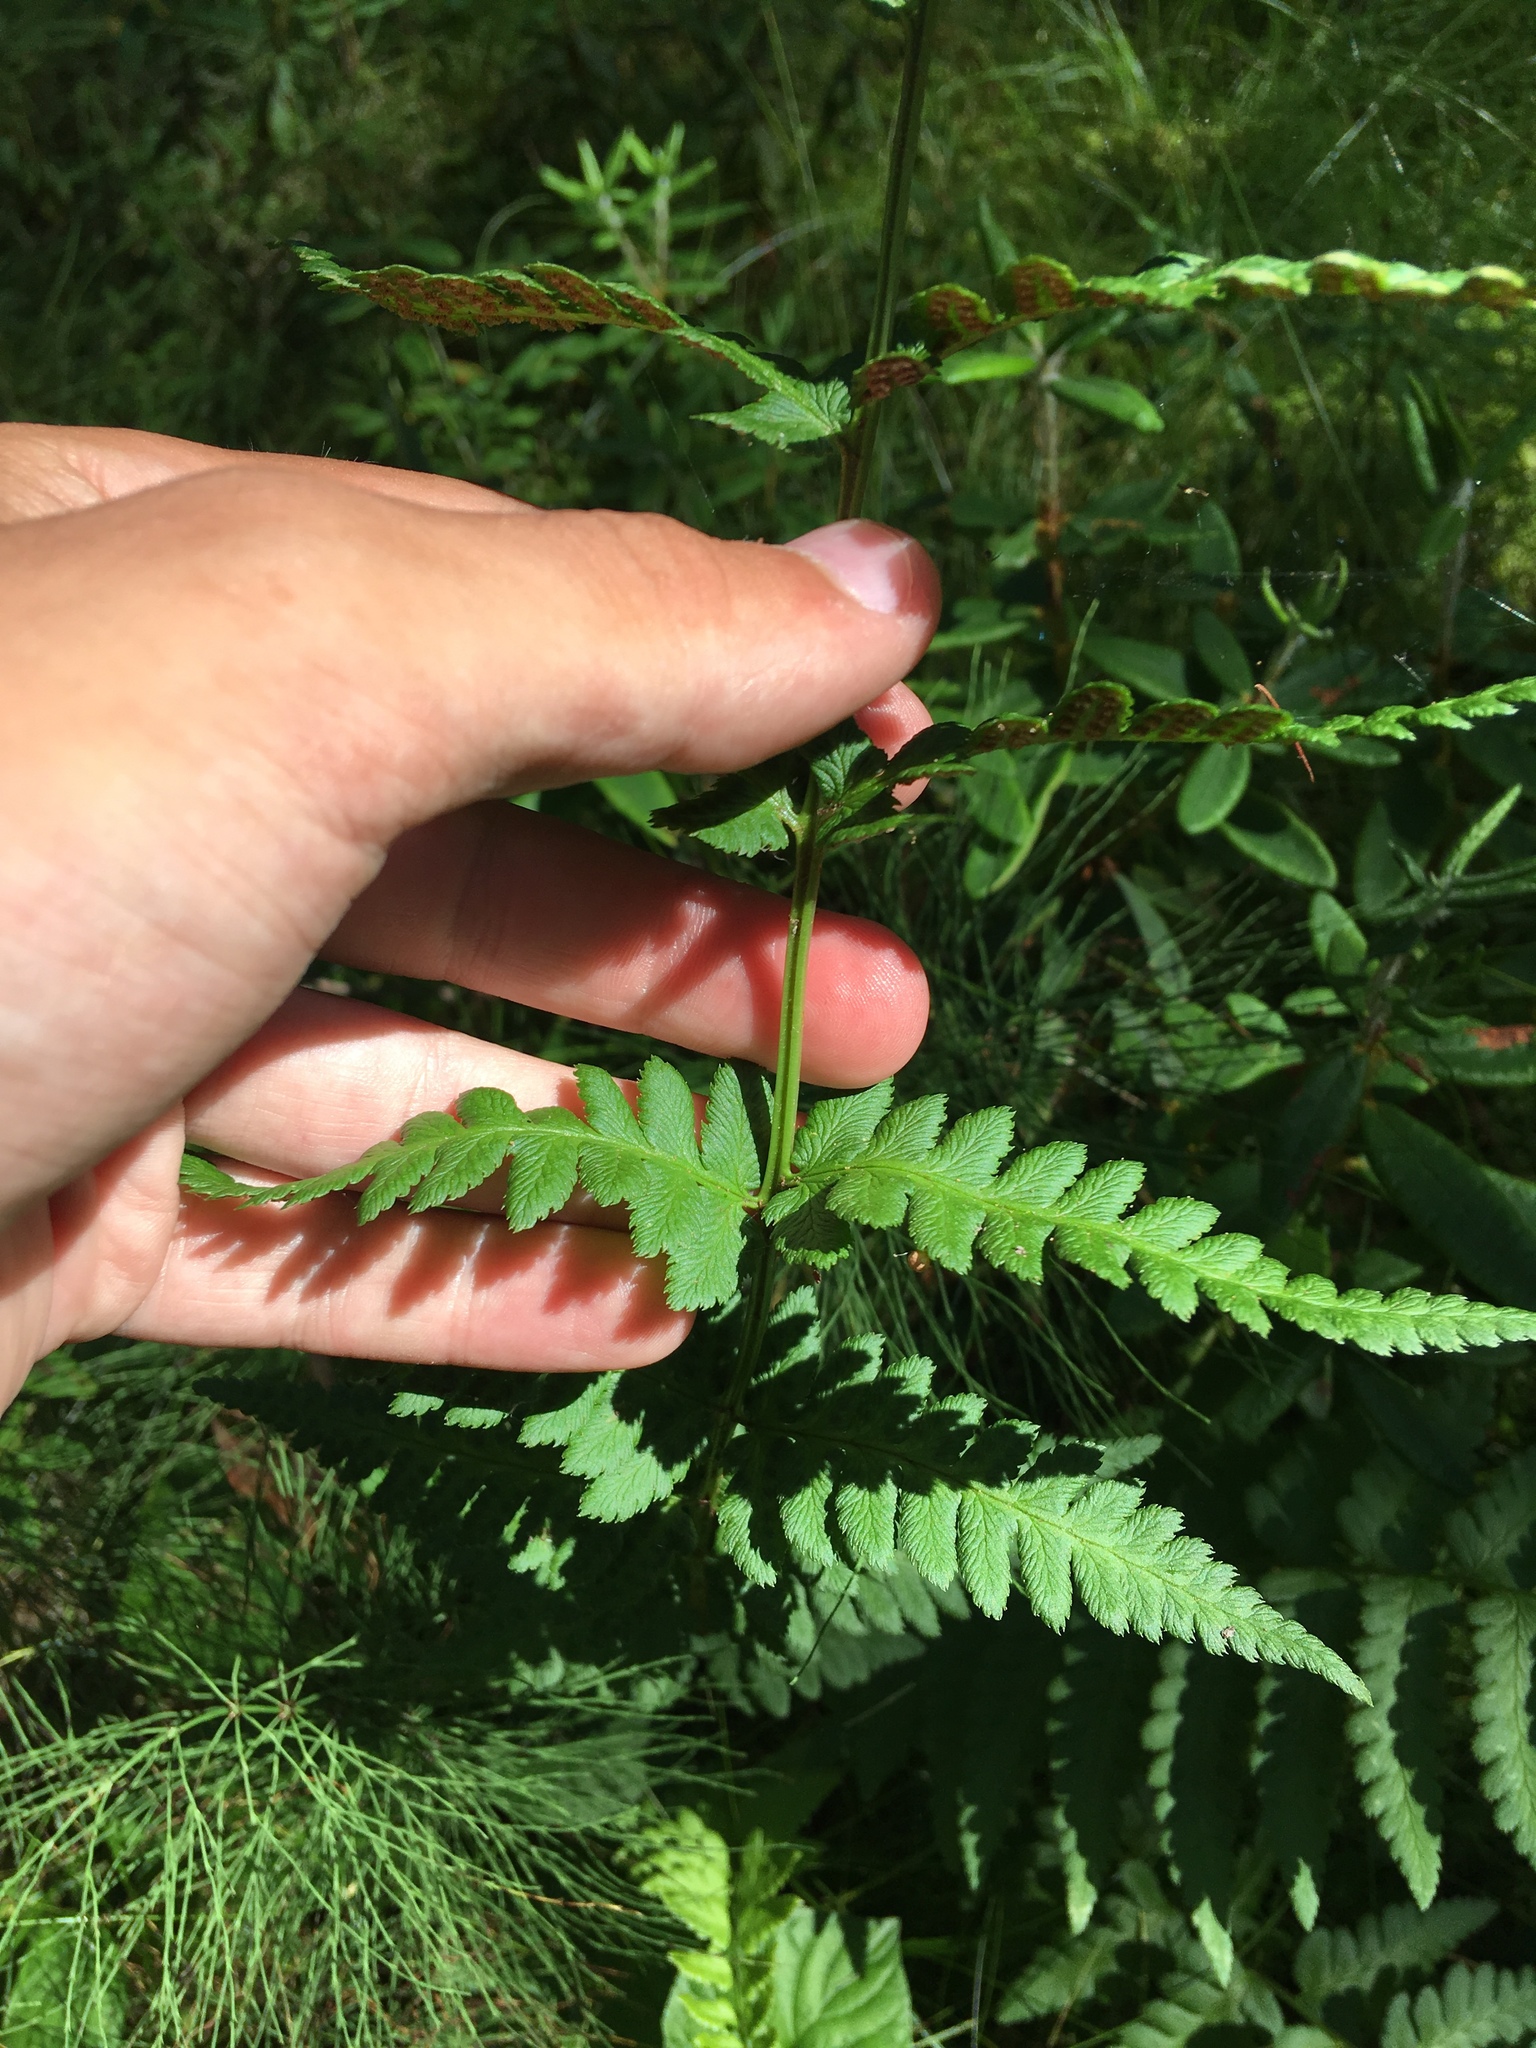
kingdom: Plantae
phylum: Tracheophyta
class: Polypodiopsida
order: Polypodiales
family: Dryopteridaceae
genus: Dryopteris
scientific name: Dryopteris cristata
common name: Crested wood fern
